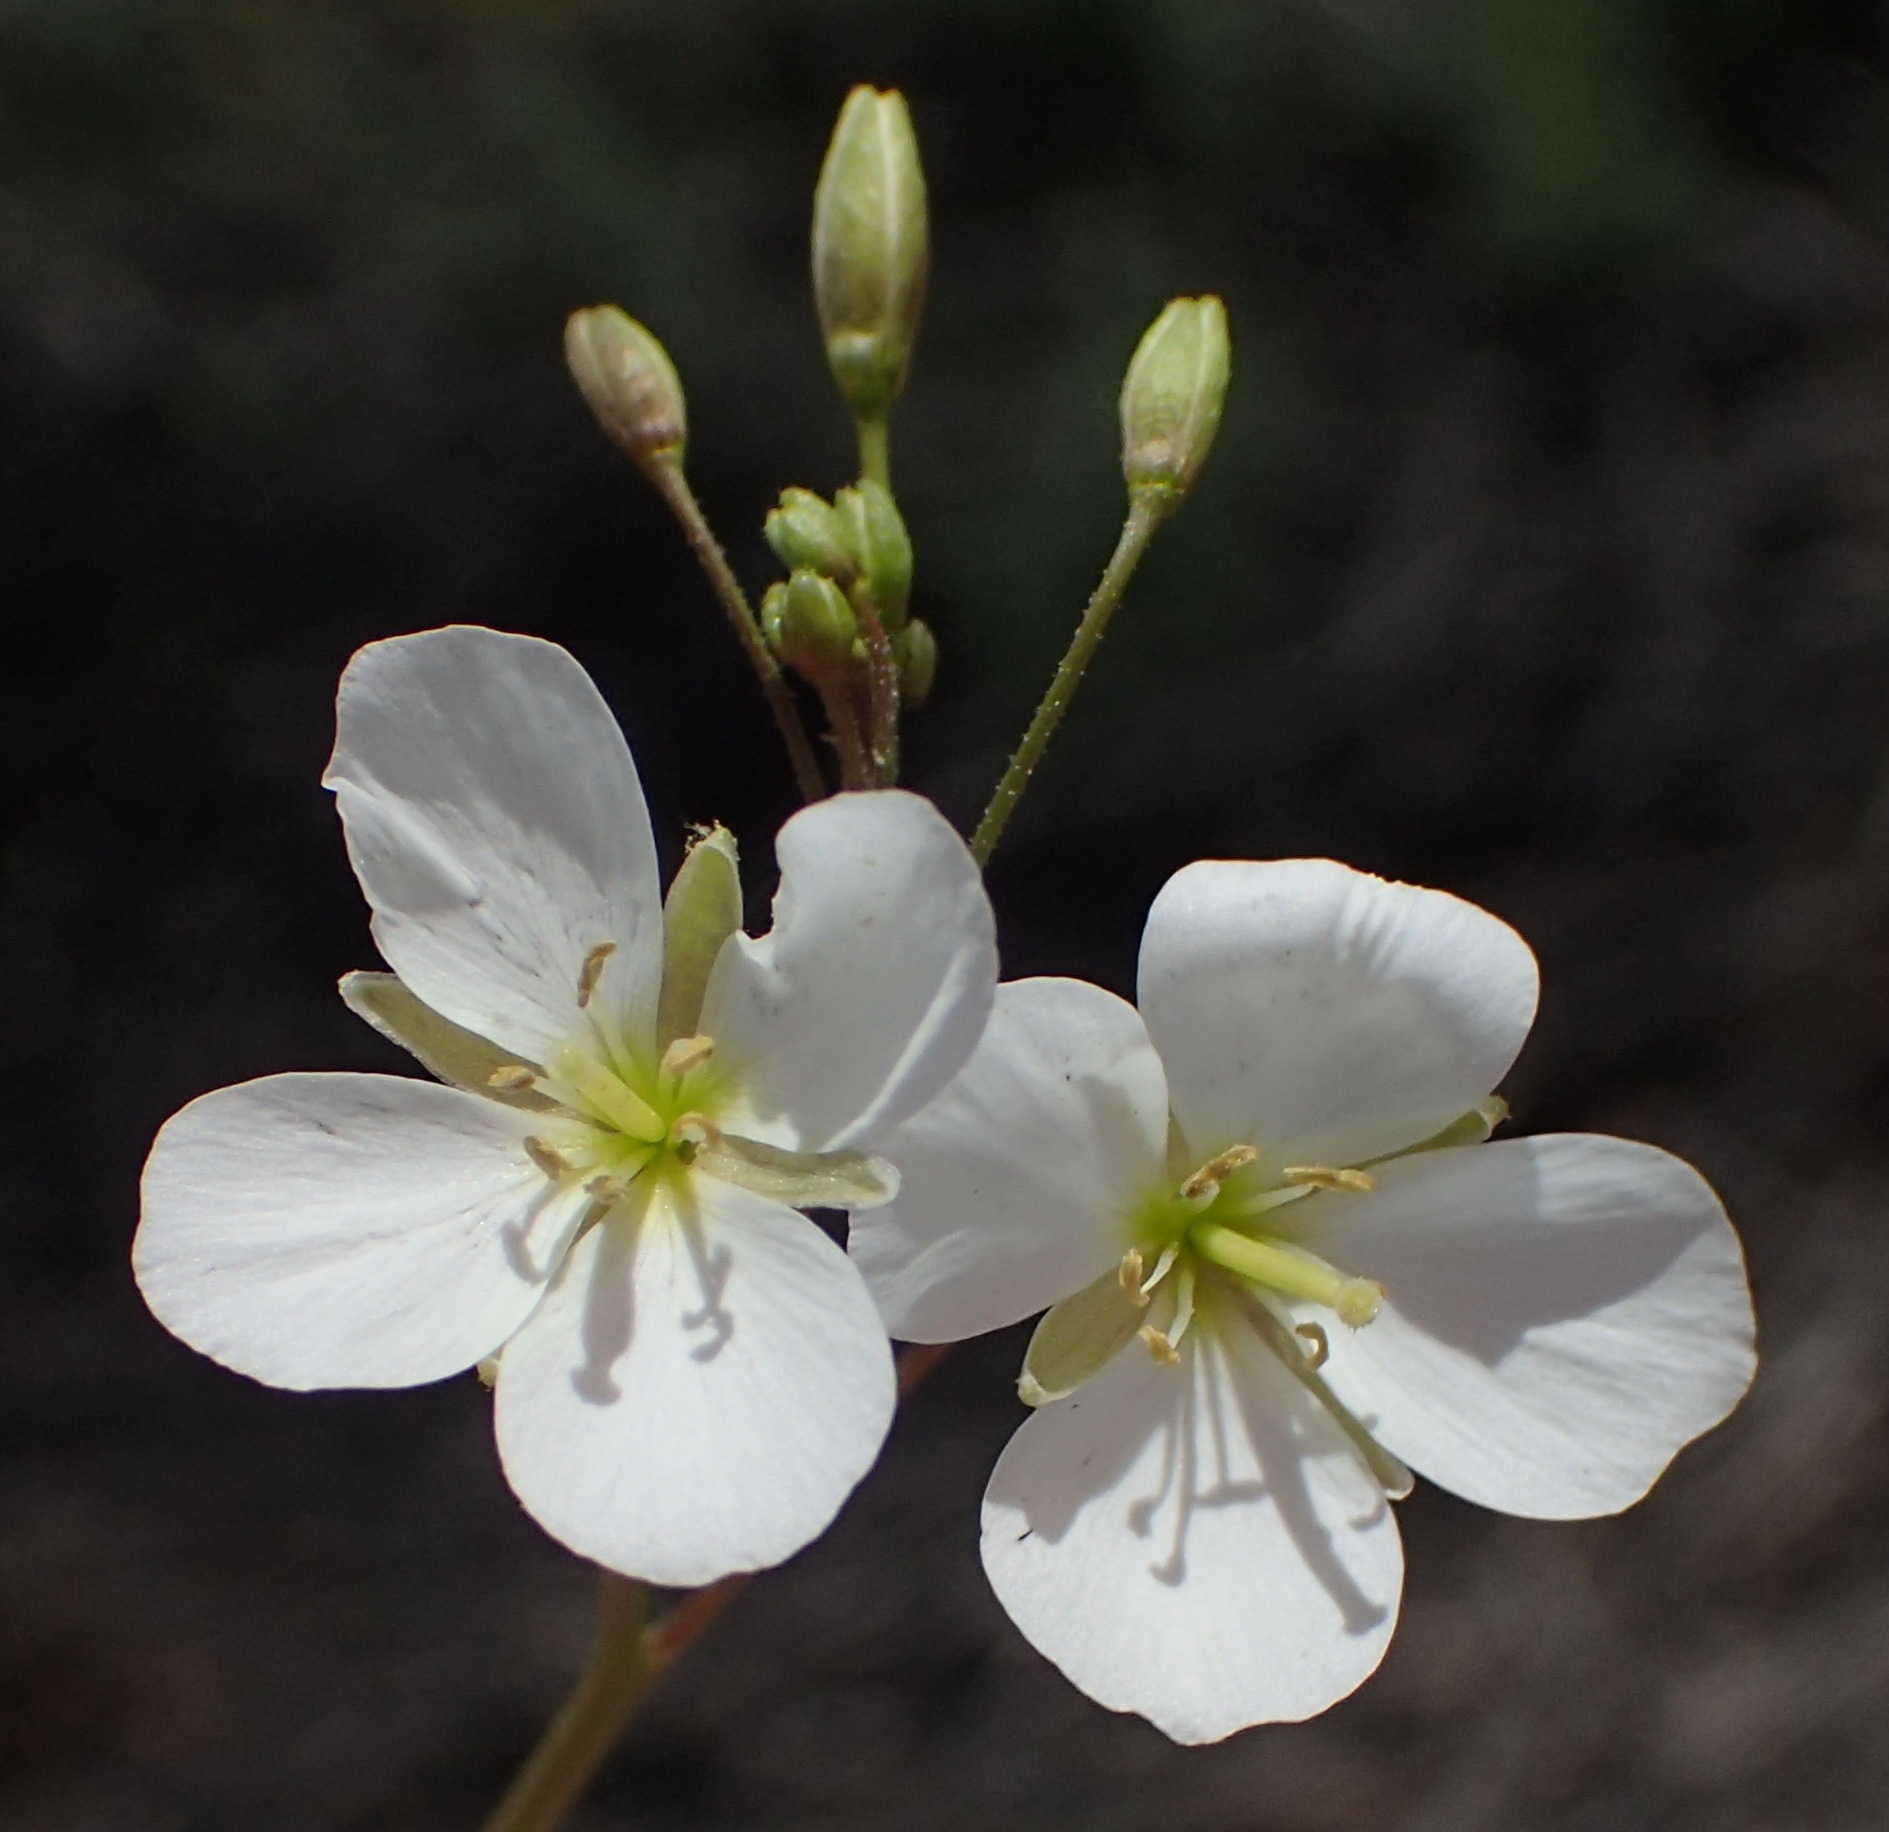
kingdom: Plantae
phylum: Tracheophyta
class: Magnoliopsida
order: Brassicales
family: Brassicaceae
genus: Heliophila
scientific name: Heliophila variabilis
